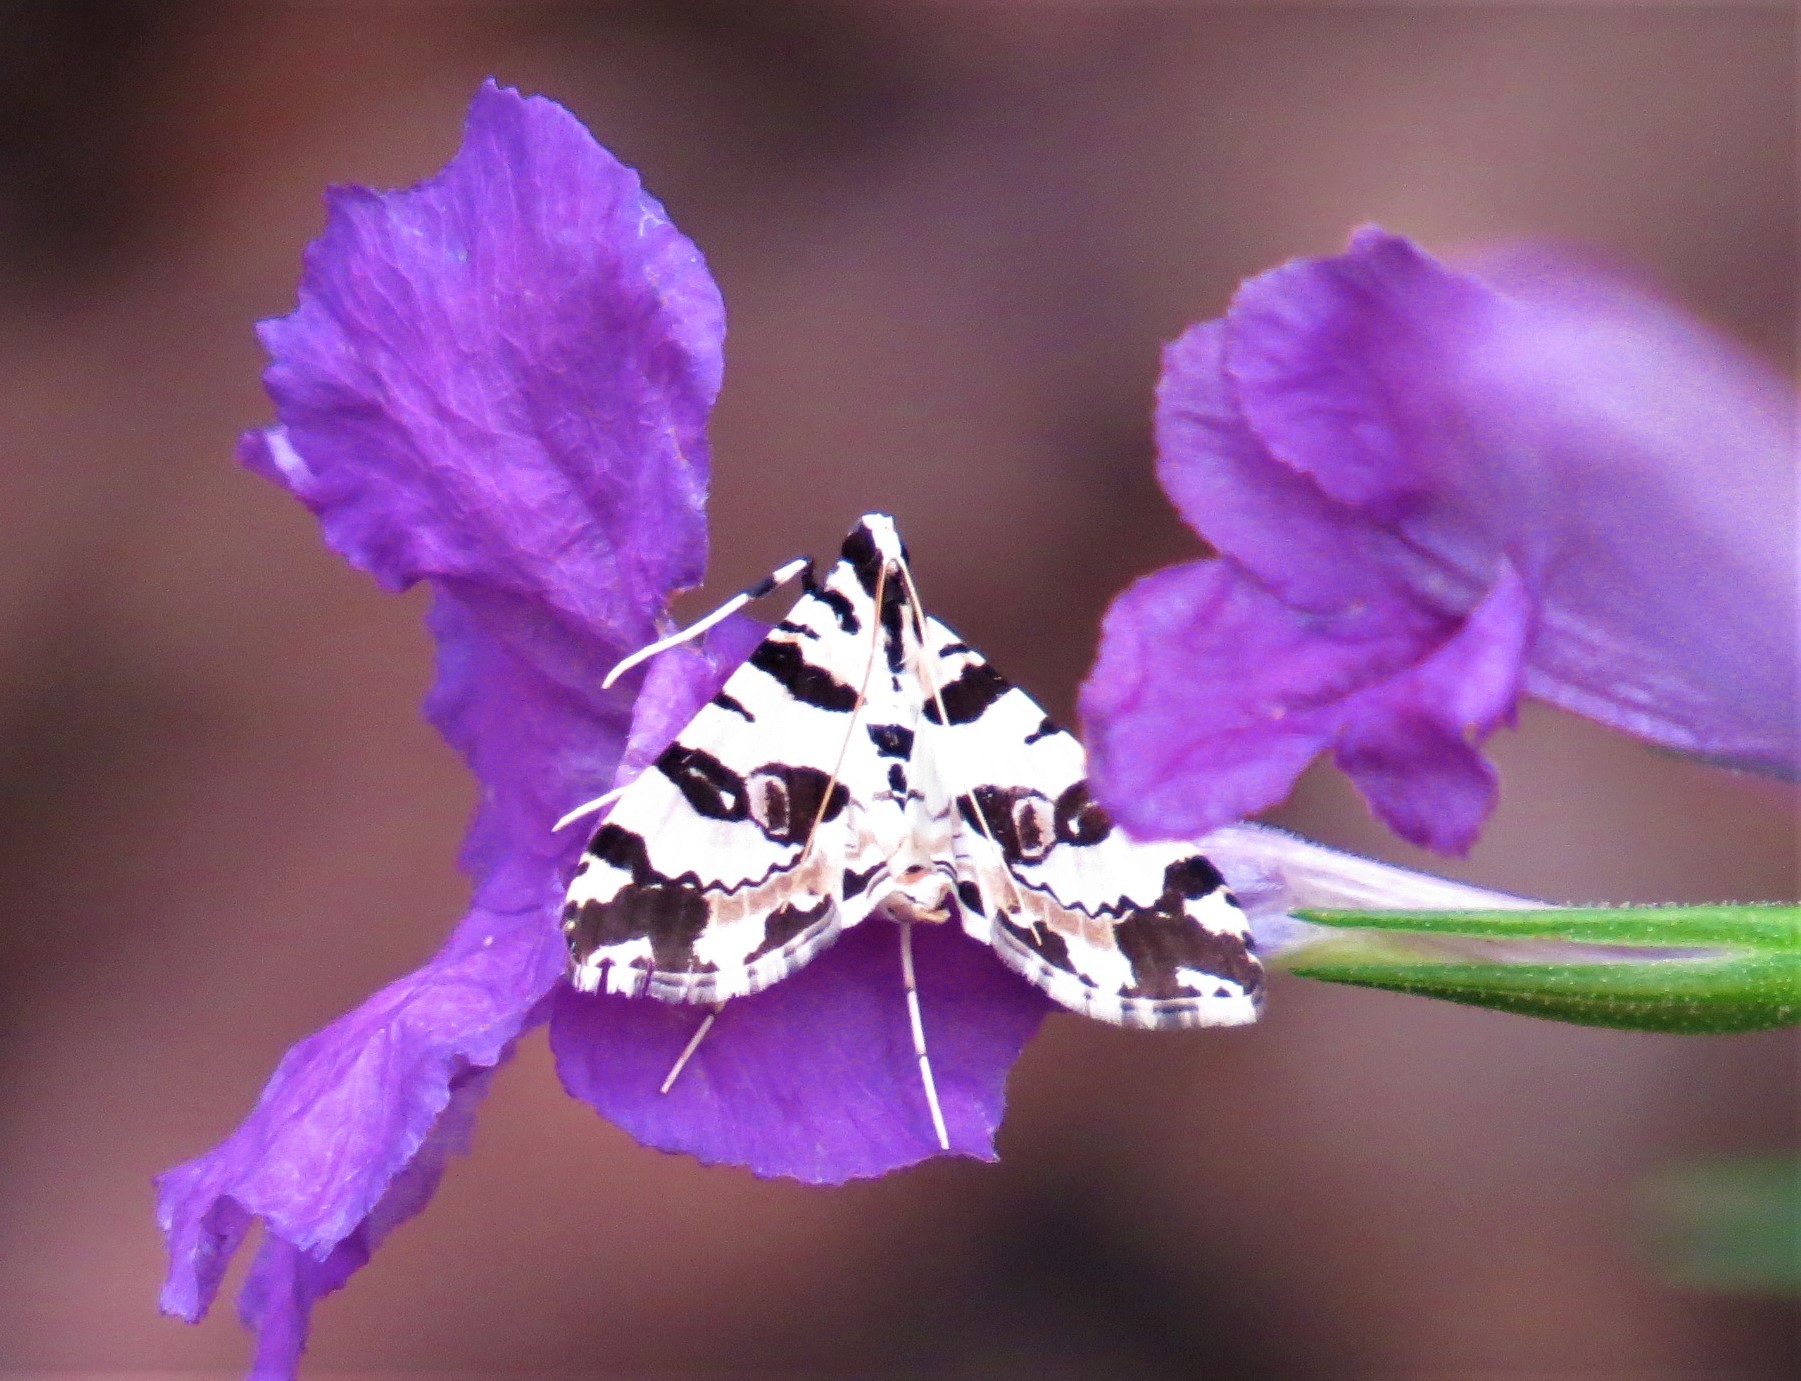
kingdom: Animalia
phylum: Arthropoda
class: Insecta
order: Lepidoptera
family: Crambidae
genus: Conchylodes
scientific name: Conchylodes salamisalis
